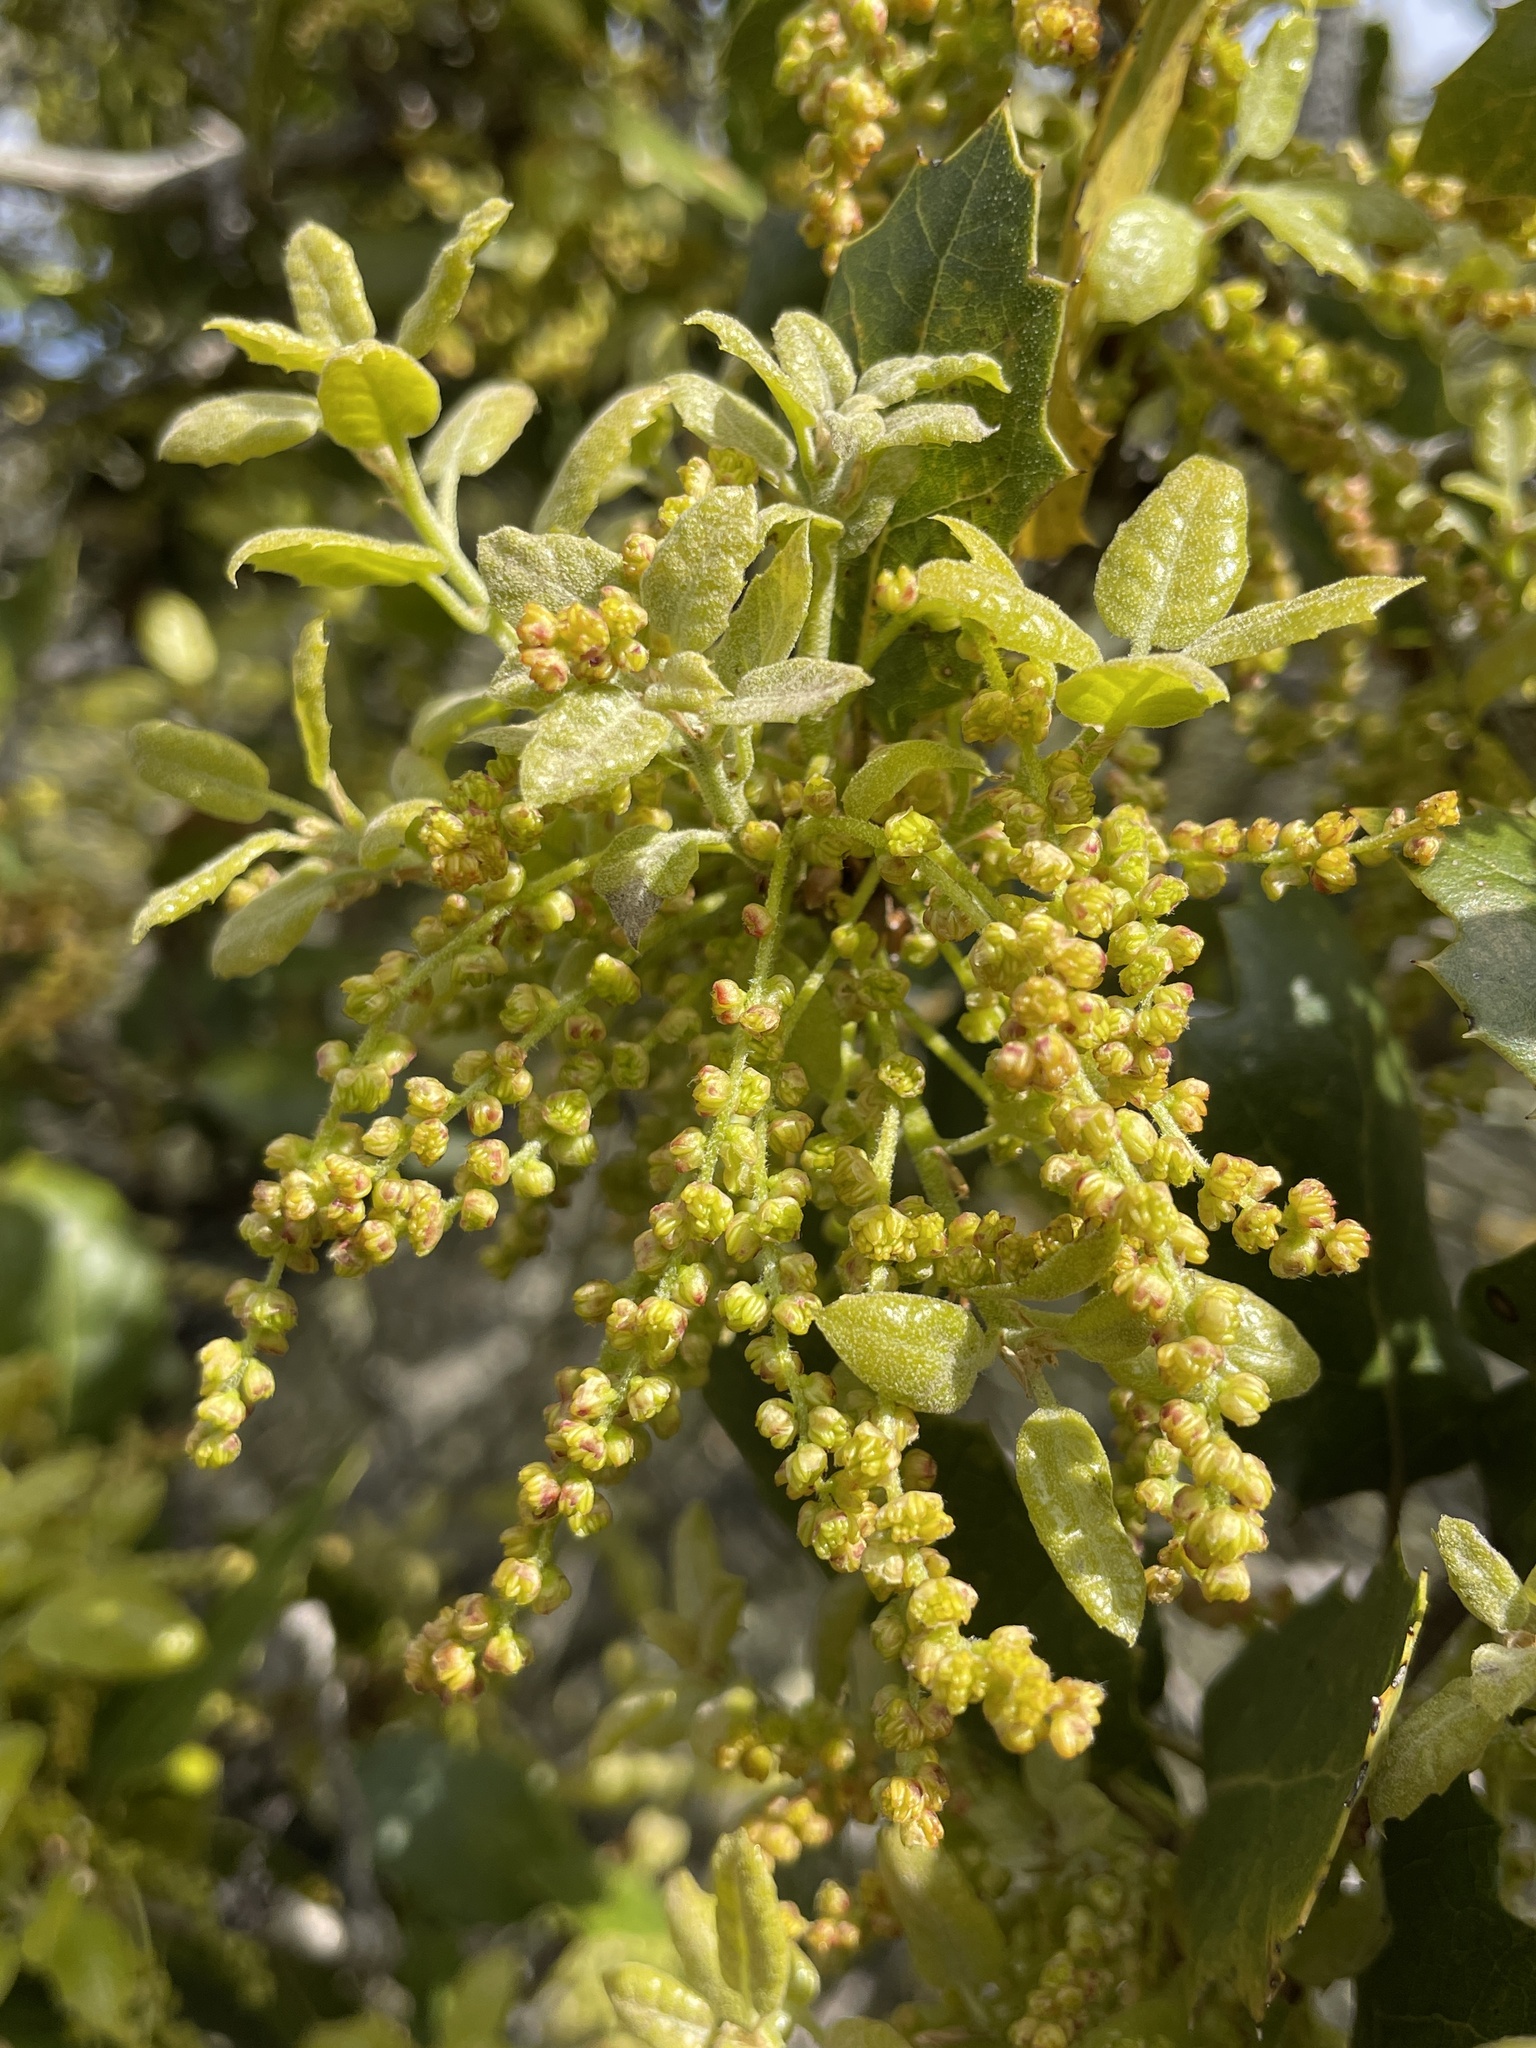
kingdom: Plantae
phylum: Tracheophyta
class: Magnoliopsida
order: Fagales
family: Fagaceae
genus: Quercus
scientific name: Quercus agrifolia
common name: California live oak
